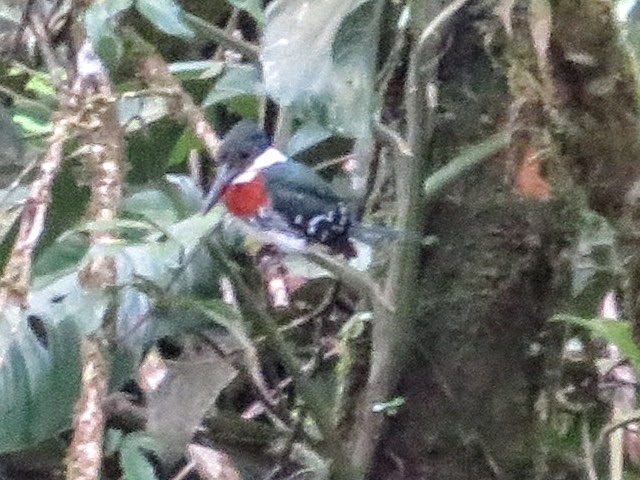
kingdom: Animalia
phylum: Chordata
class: Aves
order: Coraciiformes
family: Alcedinidae
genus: Chloroceryle
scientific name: Chloroceryle americana
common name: Green kingfisher
